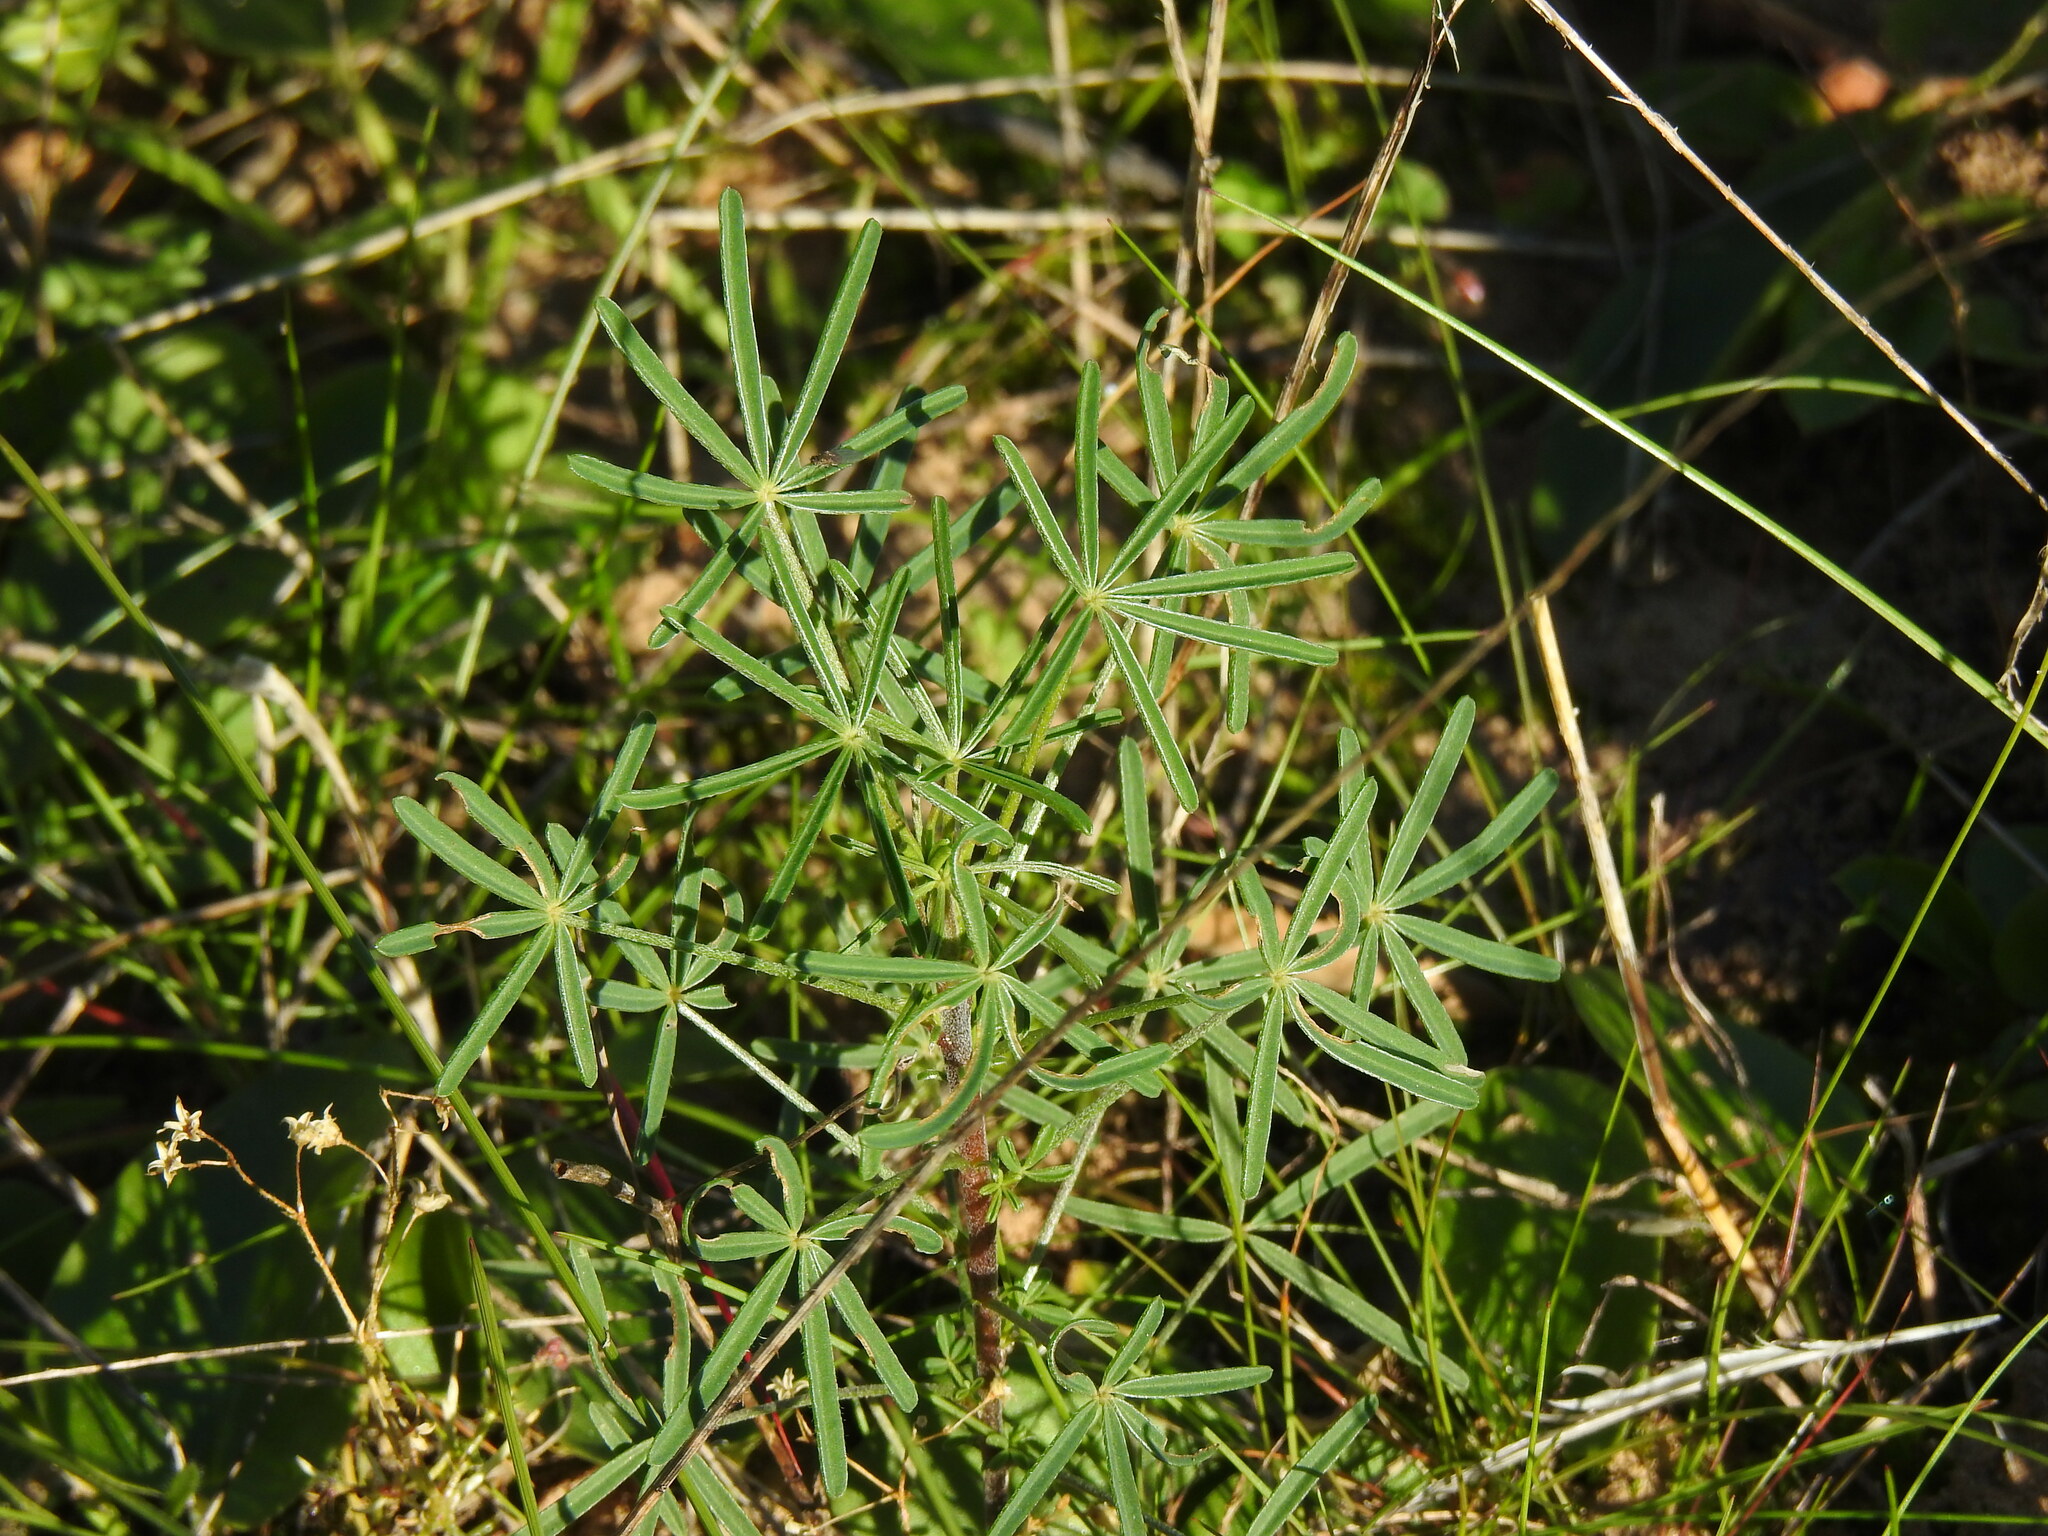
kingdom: Plantae
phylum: Tracheophyta
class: Magnoliopsida
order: Fabales
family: Fabaceae
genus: Lupinus
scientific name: Lupinus angustifolius
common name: Narrow-leaved lupin
